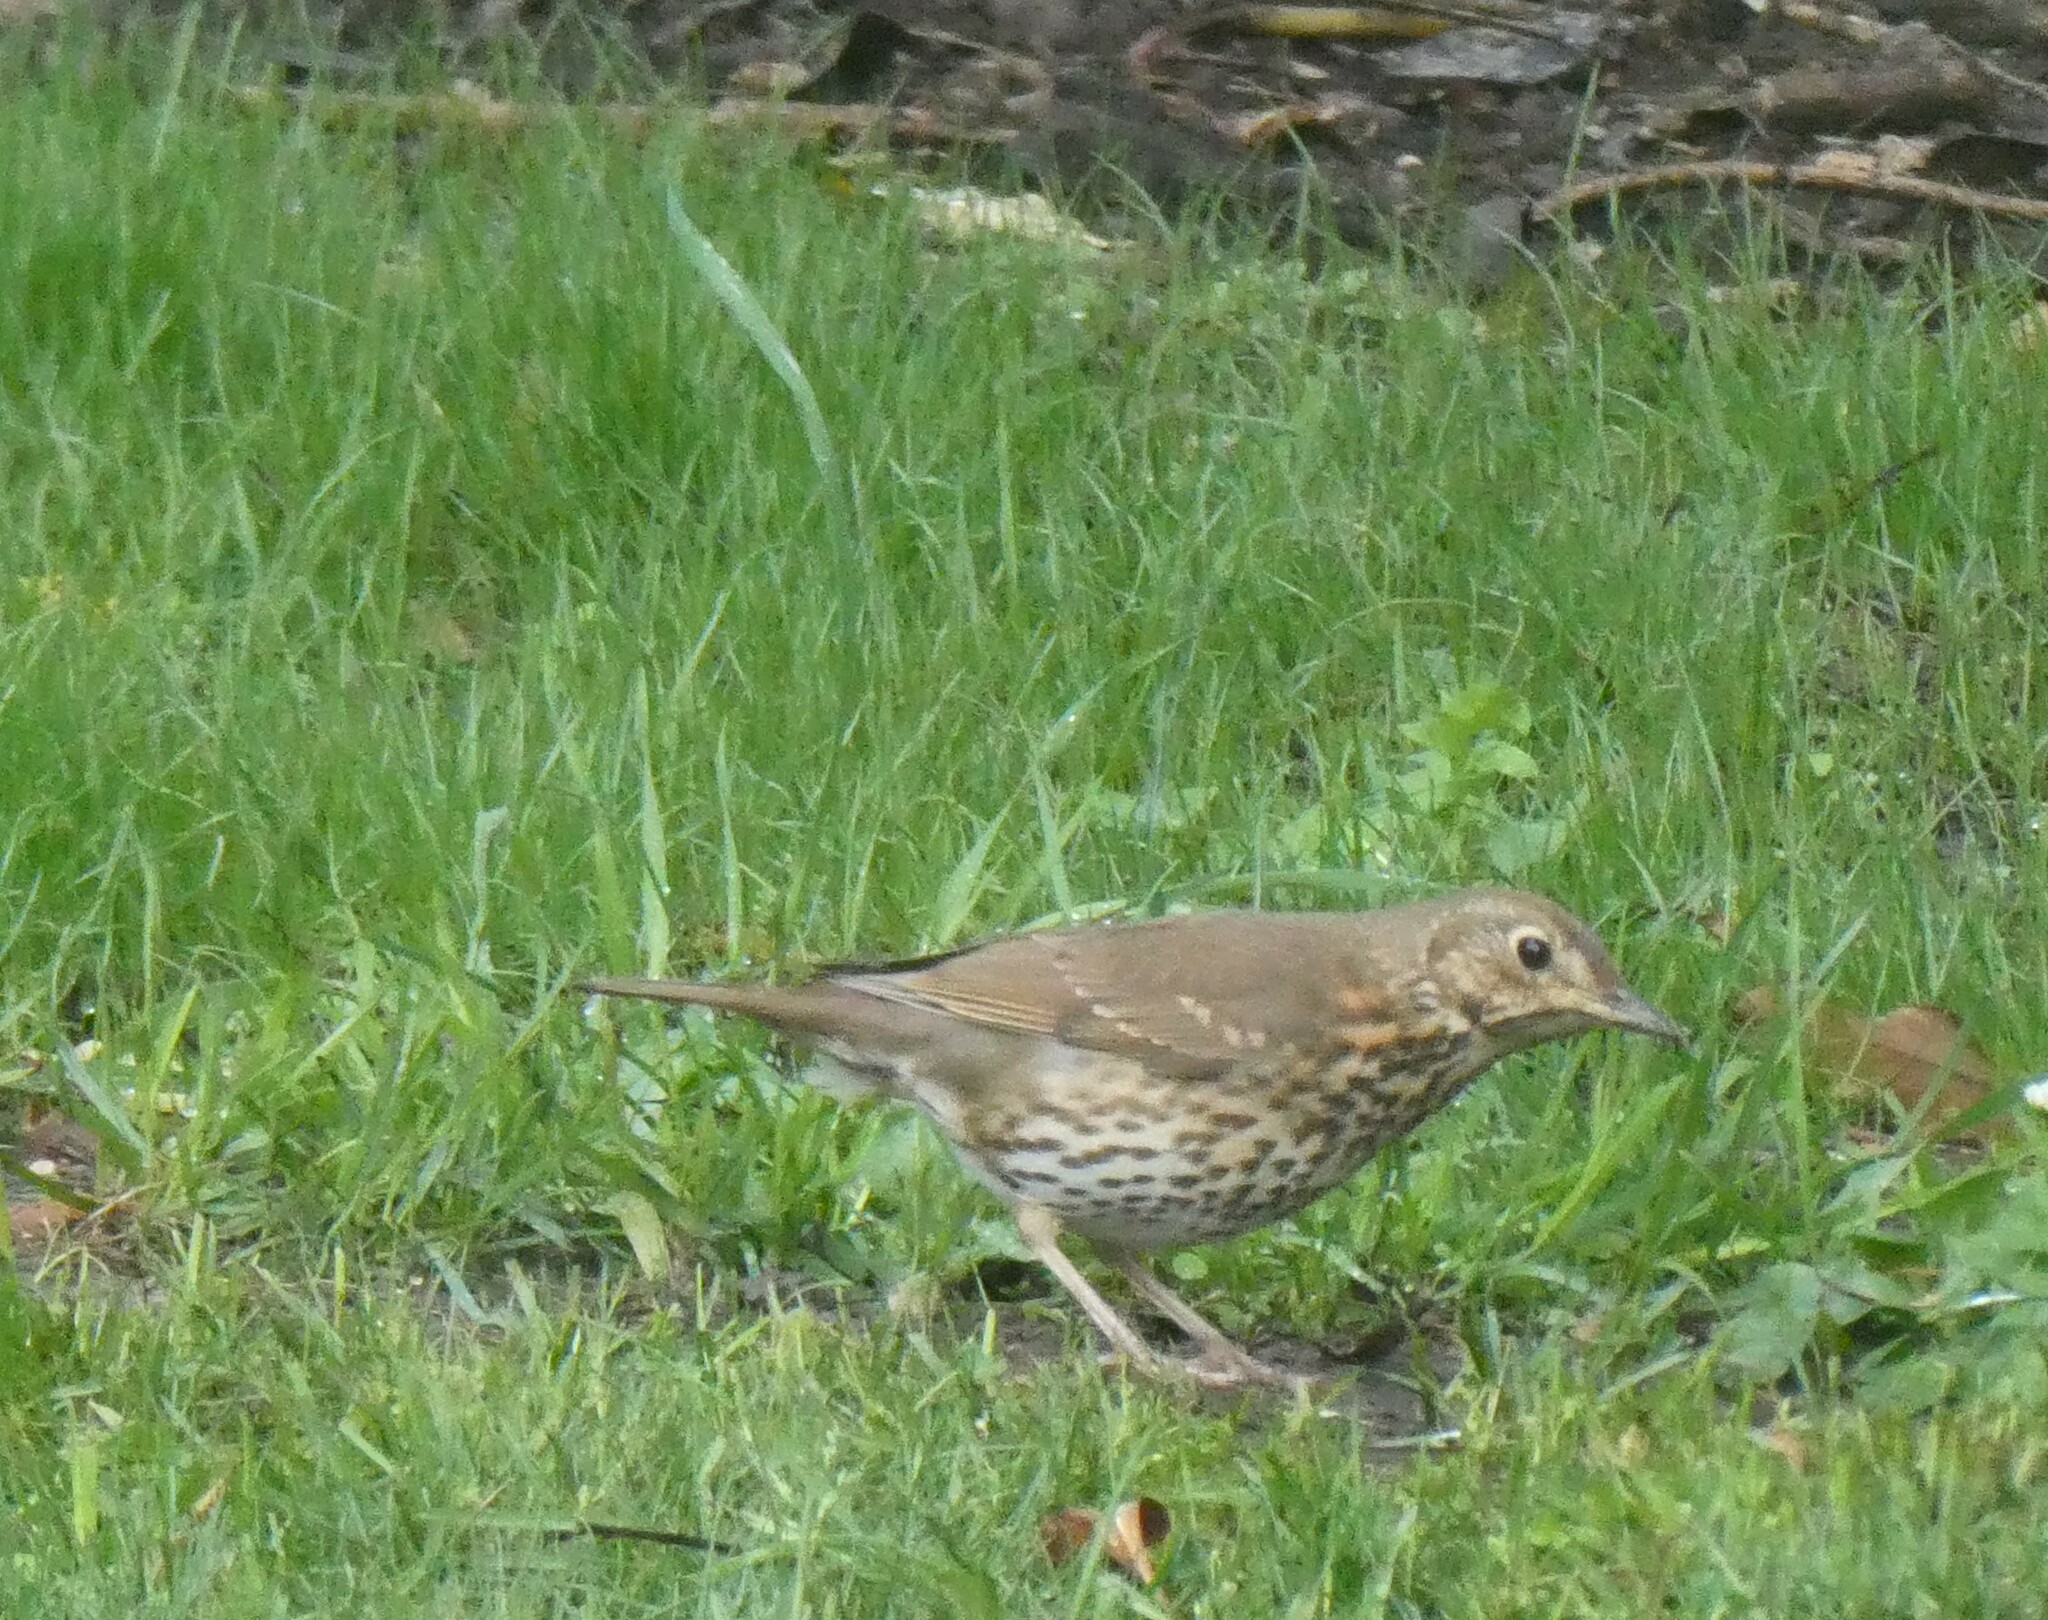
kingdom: Animalia
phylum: Chordata
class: Aves
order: Passeriformes
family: Turdidae
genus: Turdus
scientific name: Turdus philomelos
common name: Song thrush
